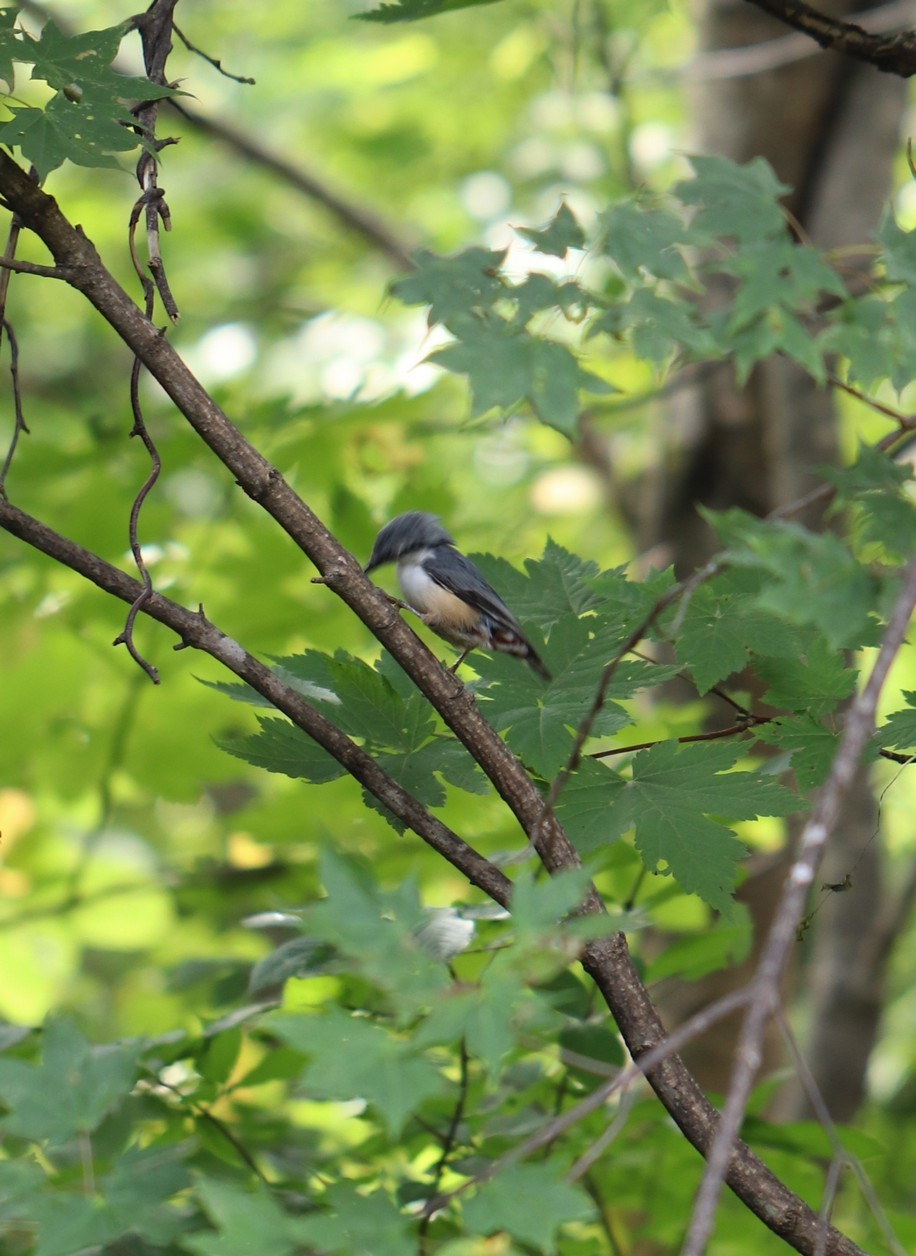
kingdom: Animalia
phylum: Chordata
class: Aves
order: Passeriformes
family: Sittidae
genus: Sitta
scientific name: Sitta europaea
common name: Eurasian nuthatch
